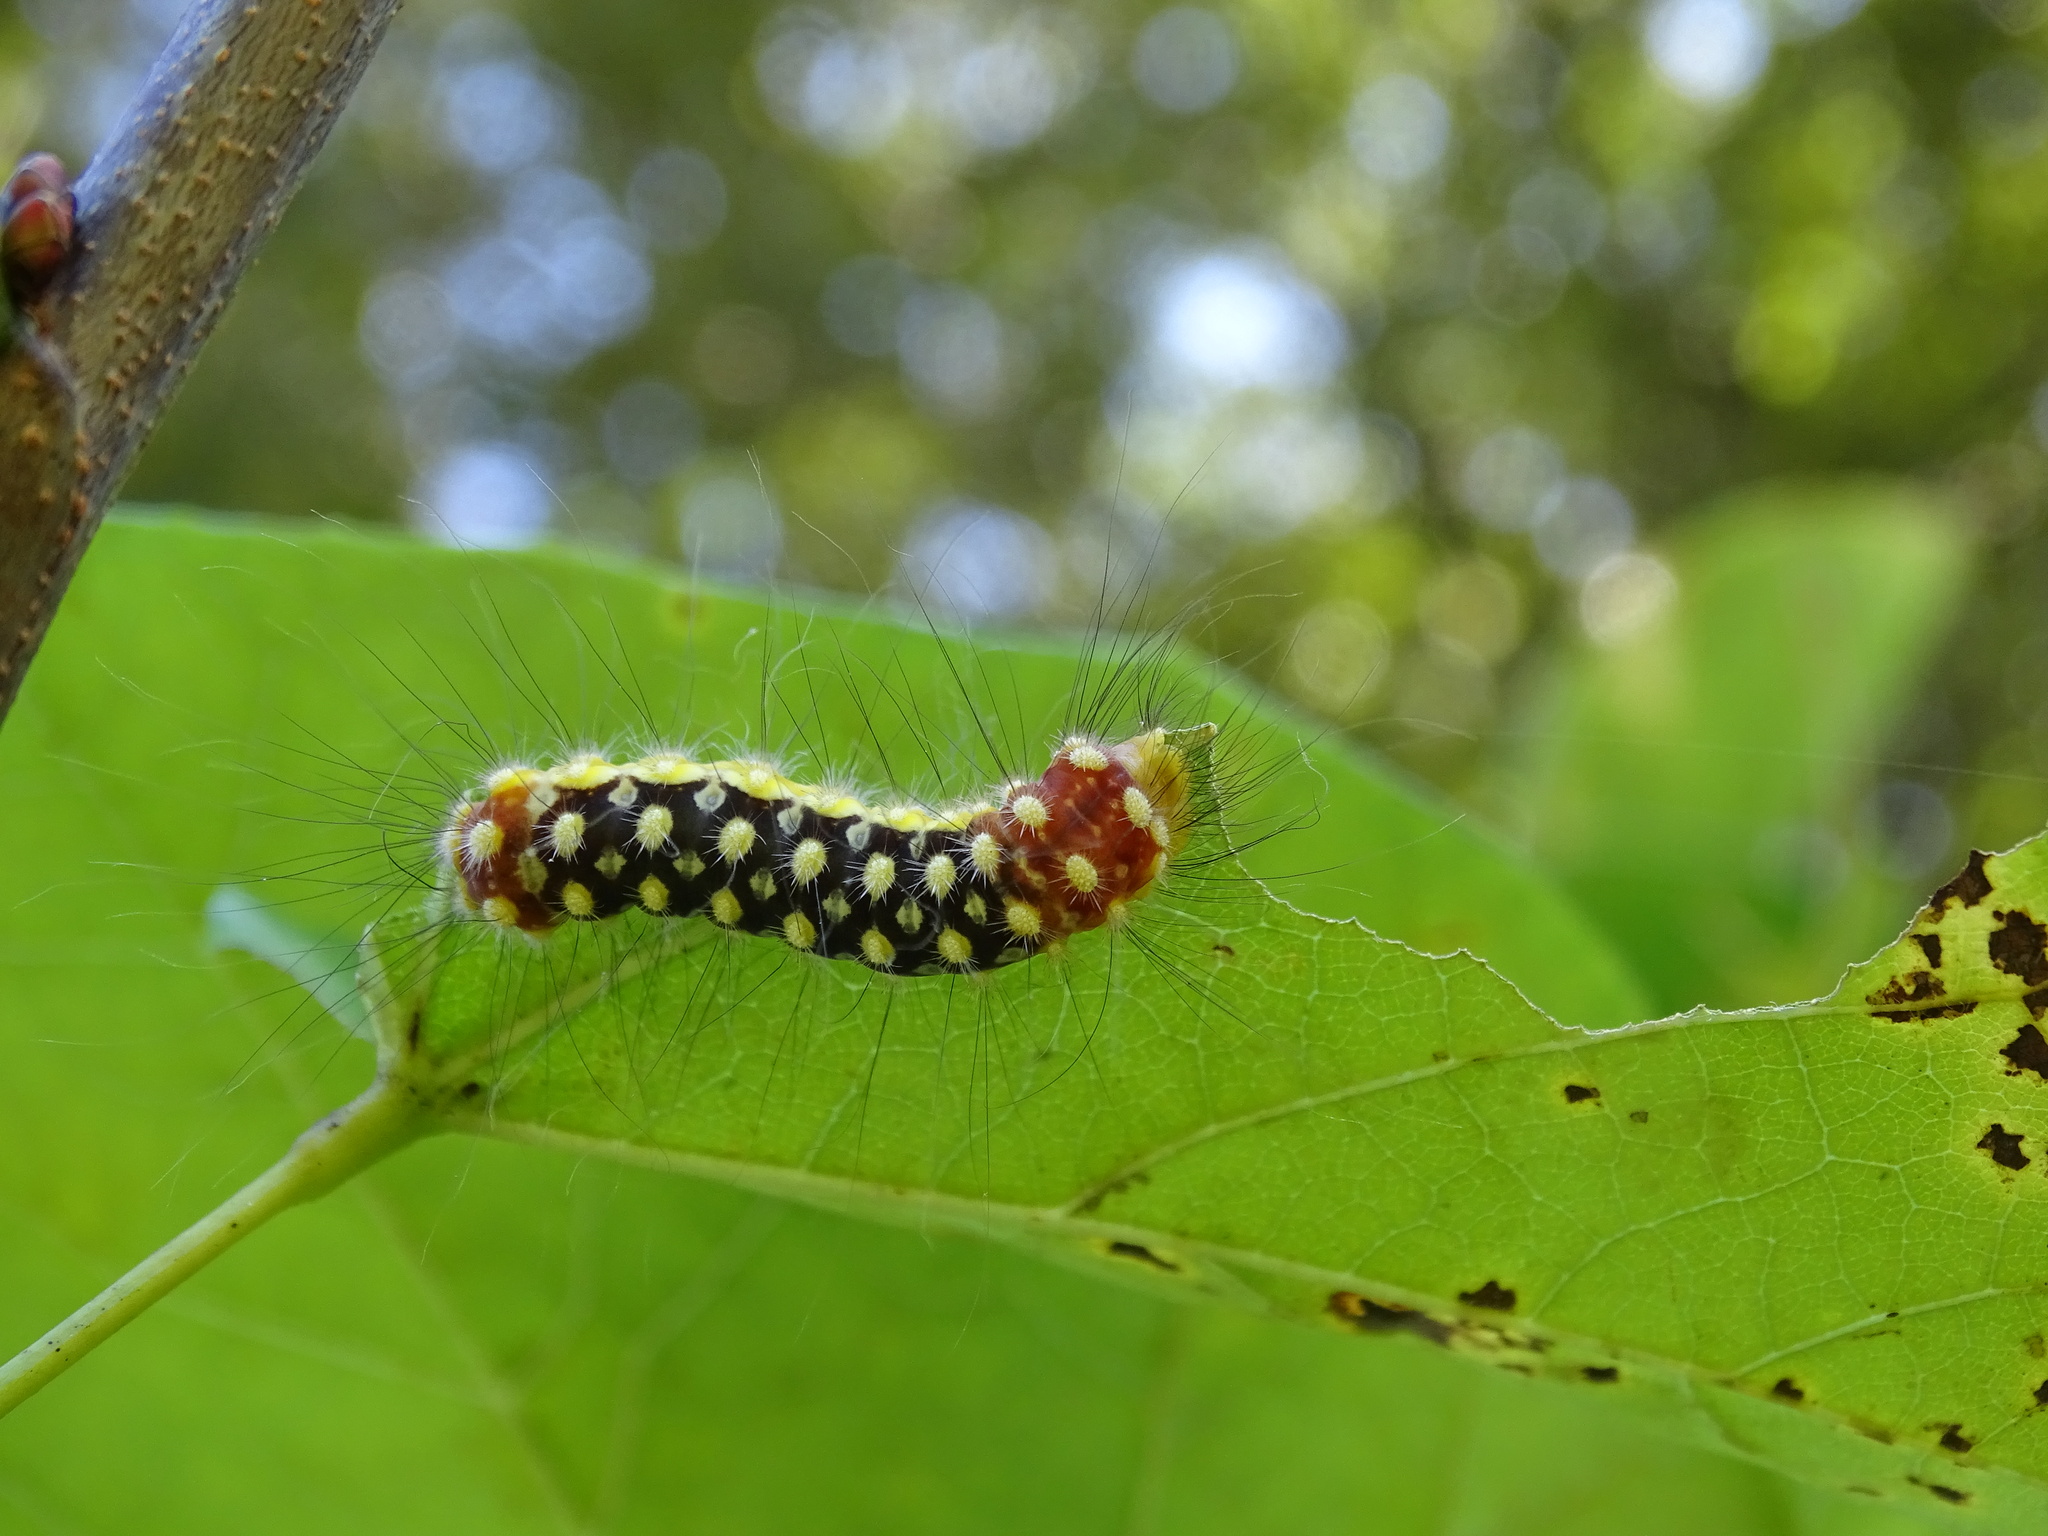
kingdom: Animalia
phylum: Arthropoda
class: Insecta
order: Lepidoptera
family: Megalopygidae
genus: Norape
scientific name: Norape cretata
